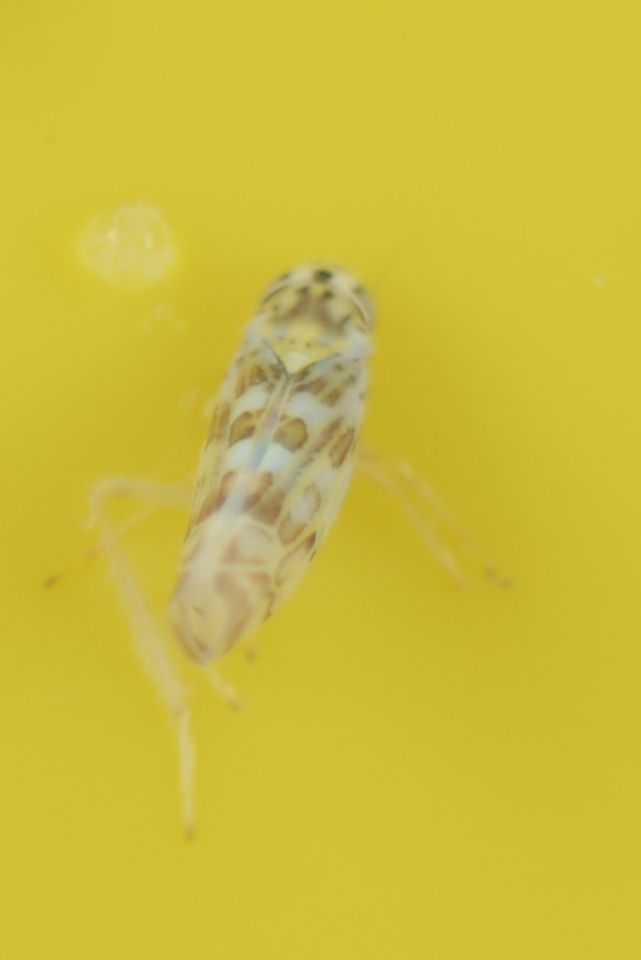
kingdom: Animalia
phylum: Arthropoda
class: Insecta
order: Hemiptera
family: Cicadellidae
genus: Eupteryx
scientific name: Eupteryx melissae
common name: Herb leafhopper
